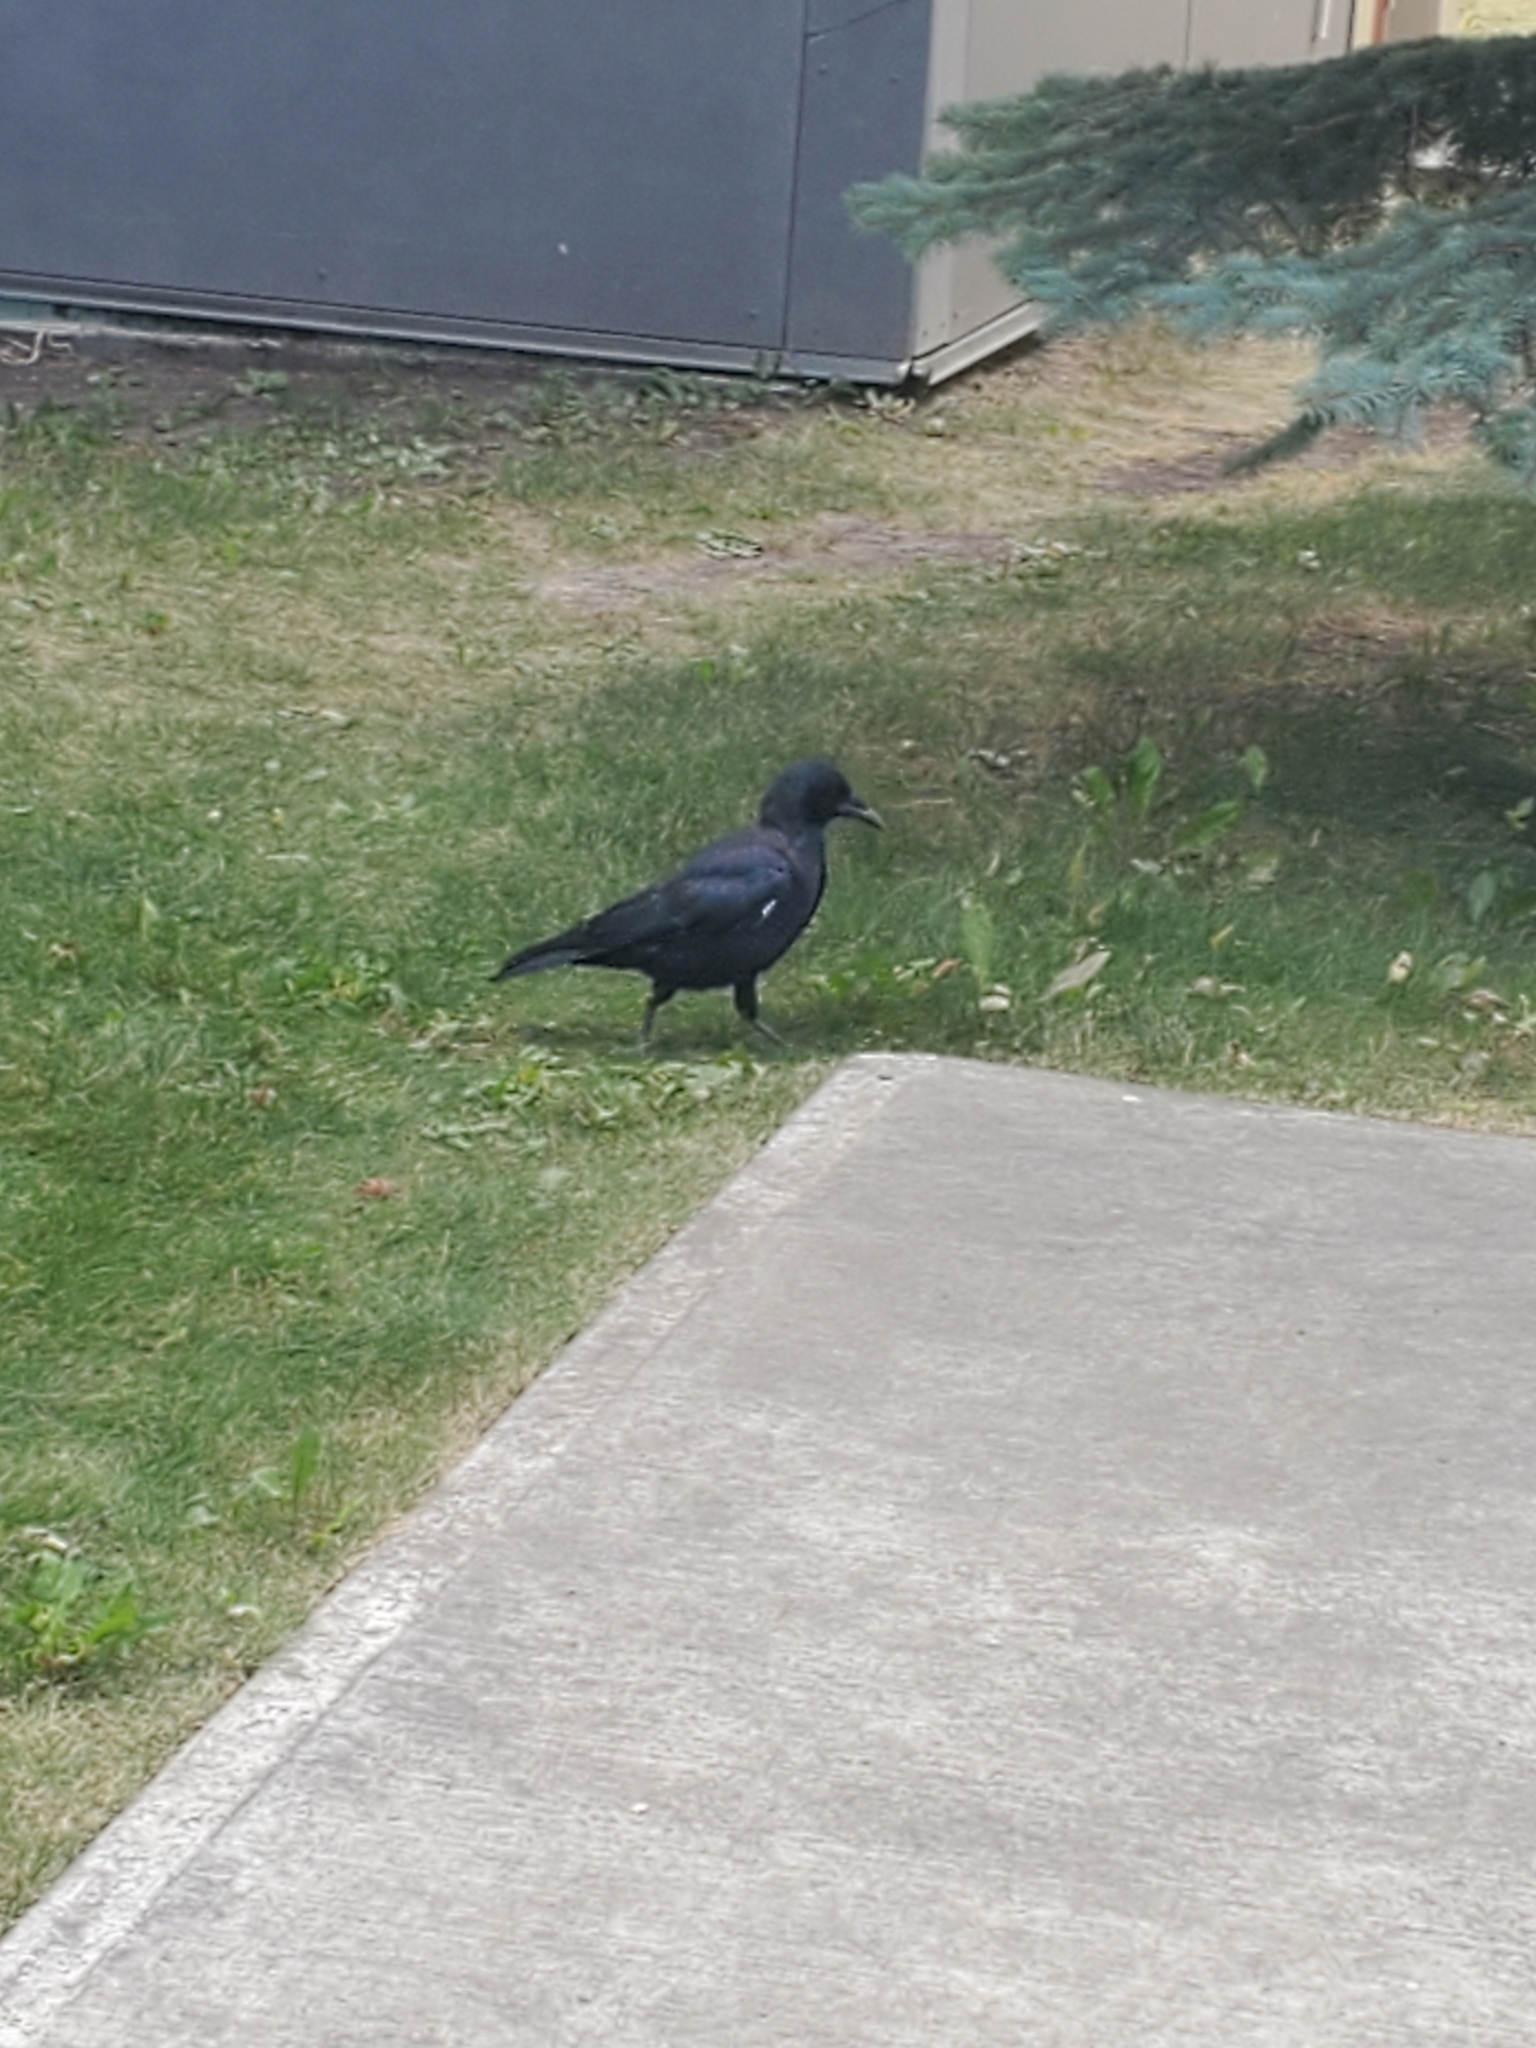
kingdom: Animalia
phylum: Chordata
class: Aves
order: Passeriformes
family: Corvidae
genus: Corvus
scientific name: Corvus brachyrhynchos
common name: American crow
